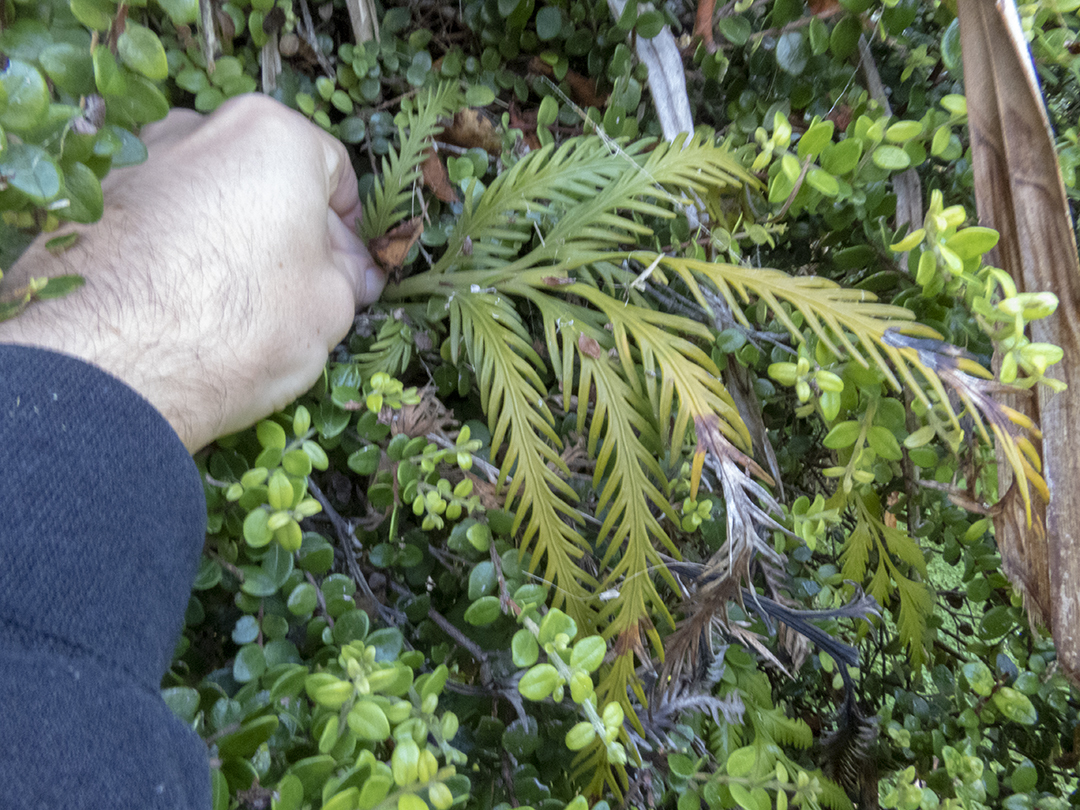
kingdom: Plantae
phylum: Tracheophyta
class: Polypodiopsida
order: Polypodiales
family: Aspleniaceae
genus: Asplenium
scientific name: Asplenium flaccidum
